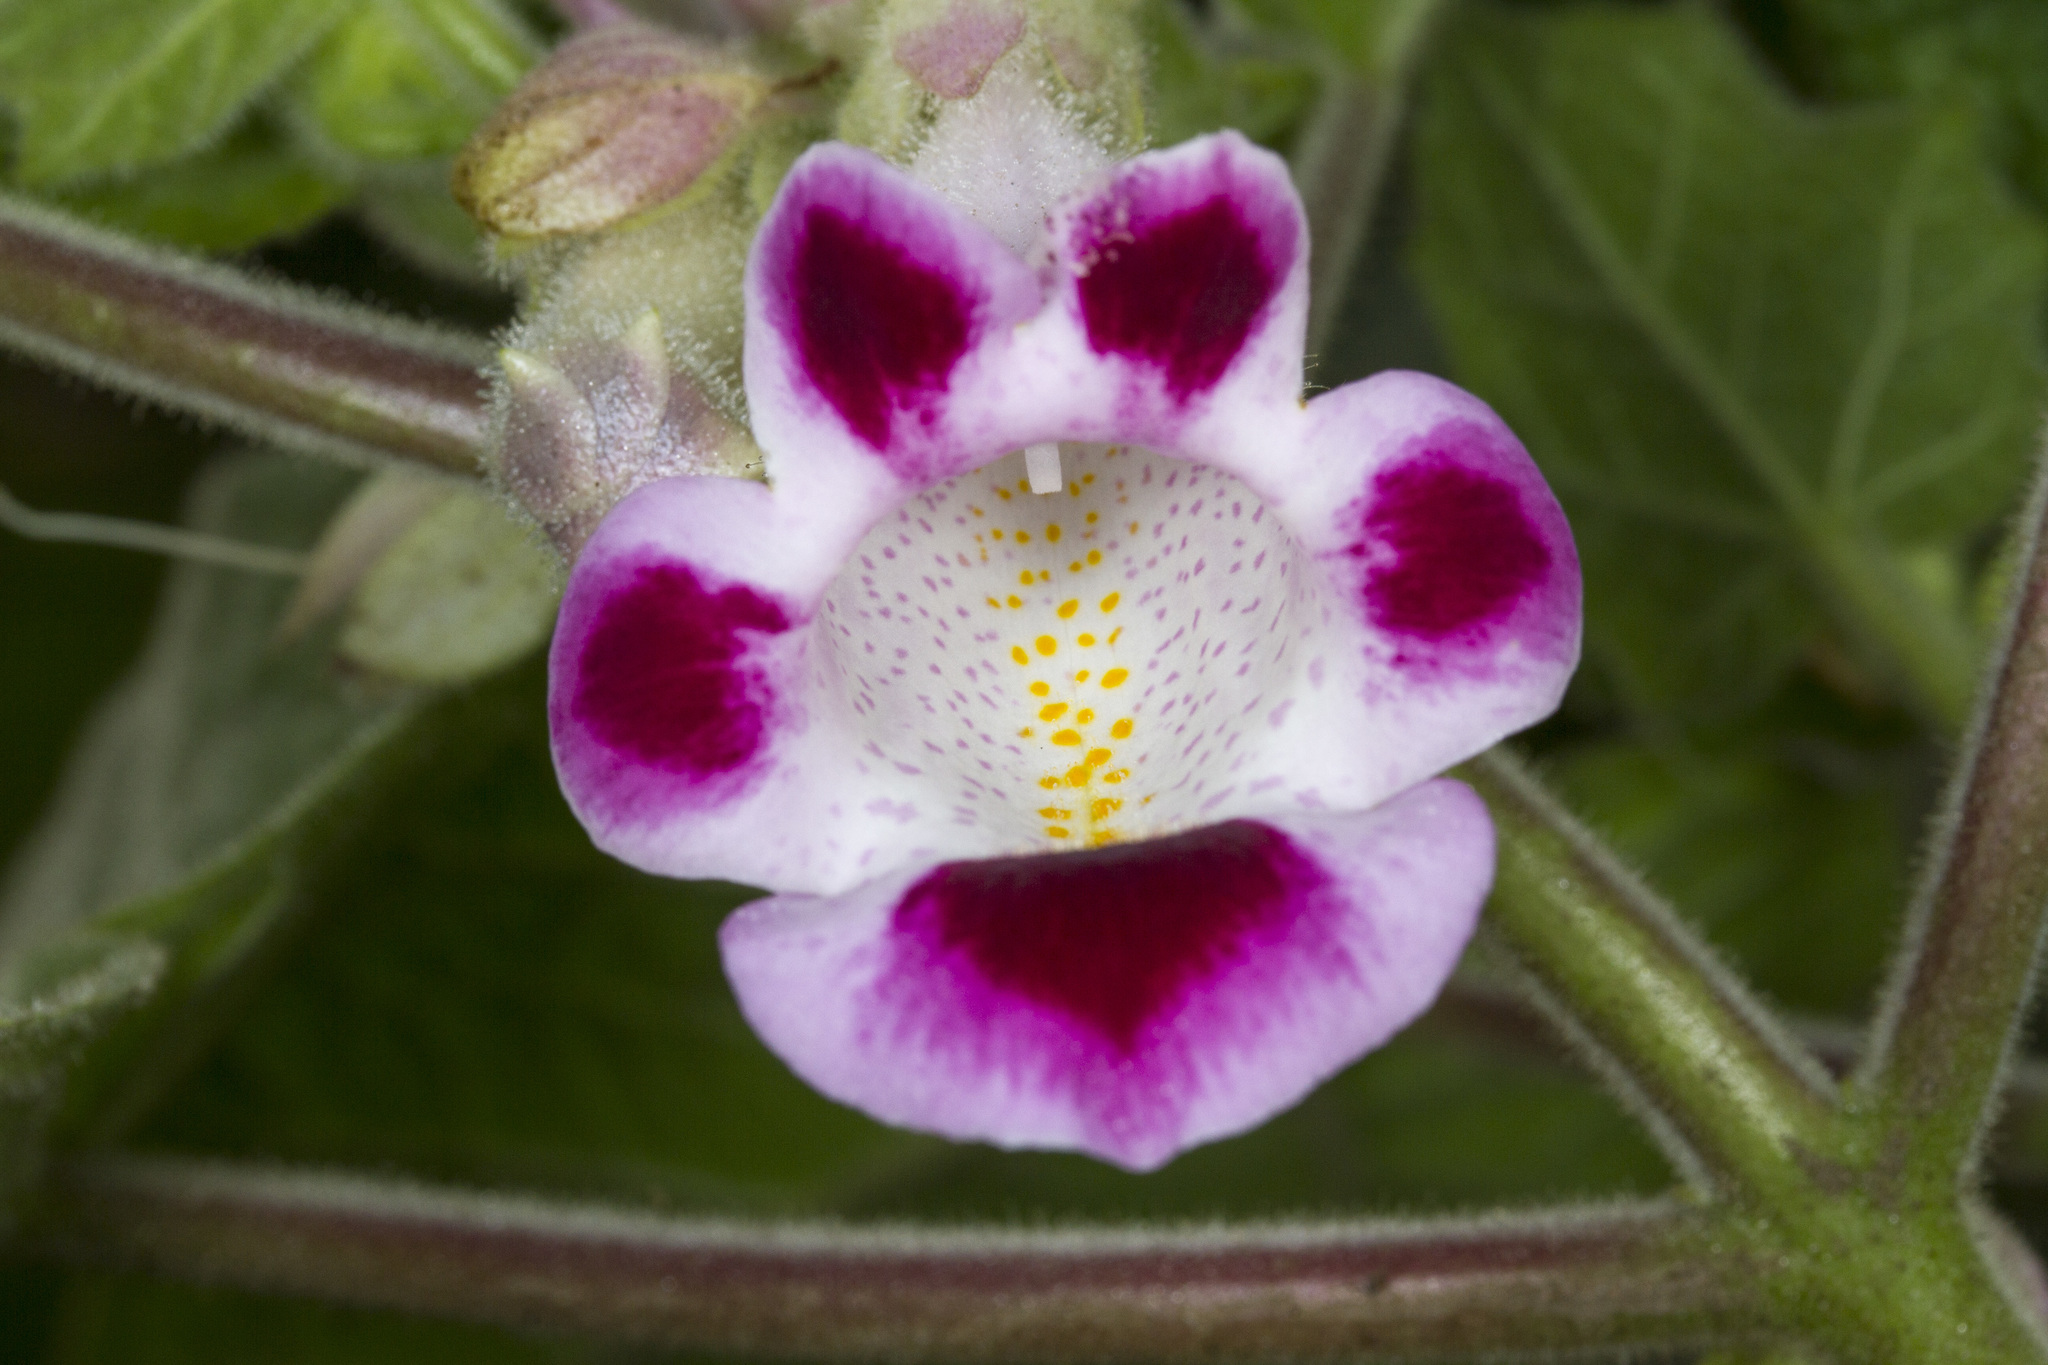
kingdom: Plantae
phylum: Tracheophyta
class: Magnoliopsida
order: Lamiales
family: Martyniaceae
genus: Martynia
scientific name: Martynia annua
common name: Tiger's-claw
